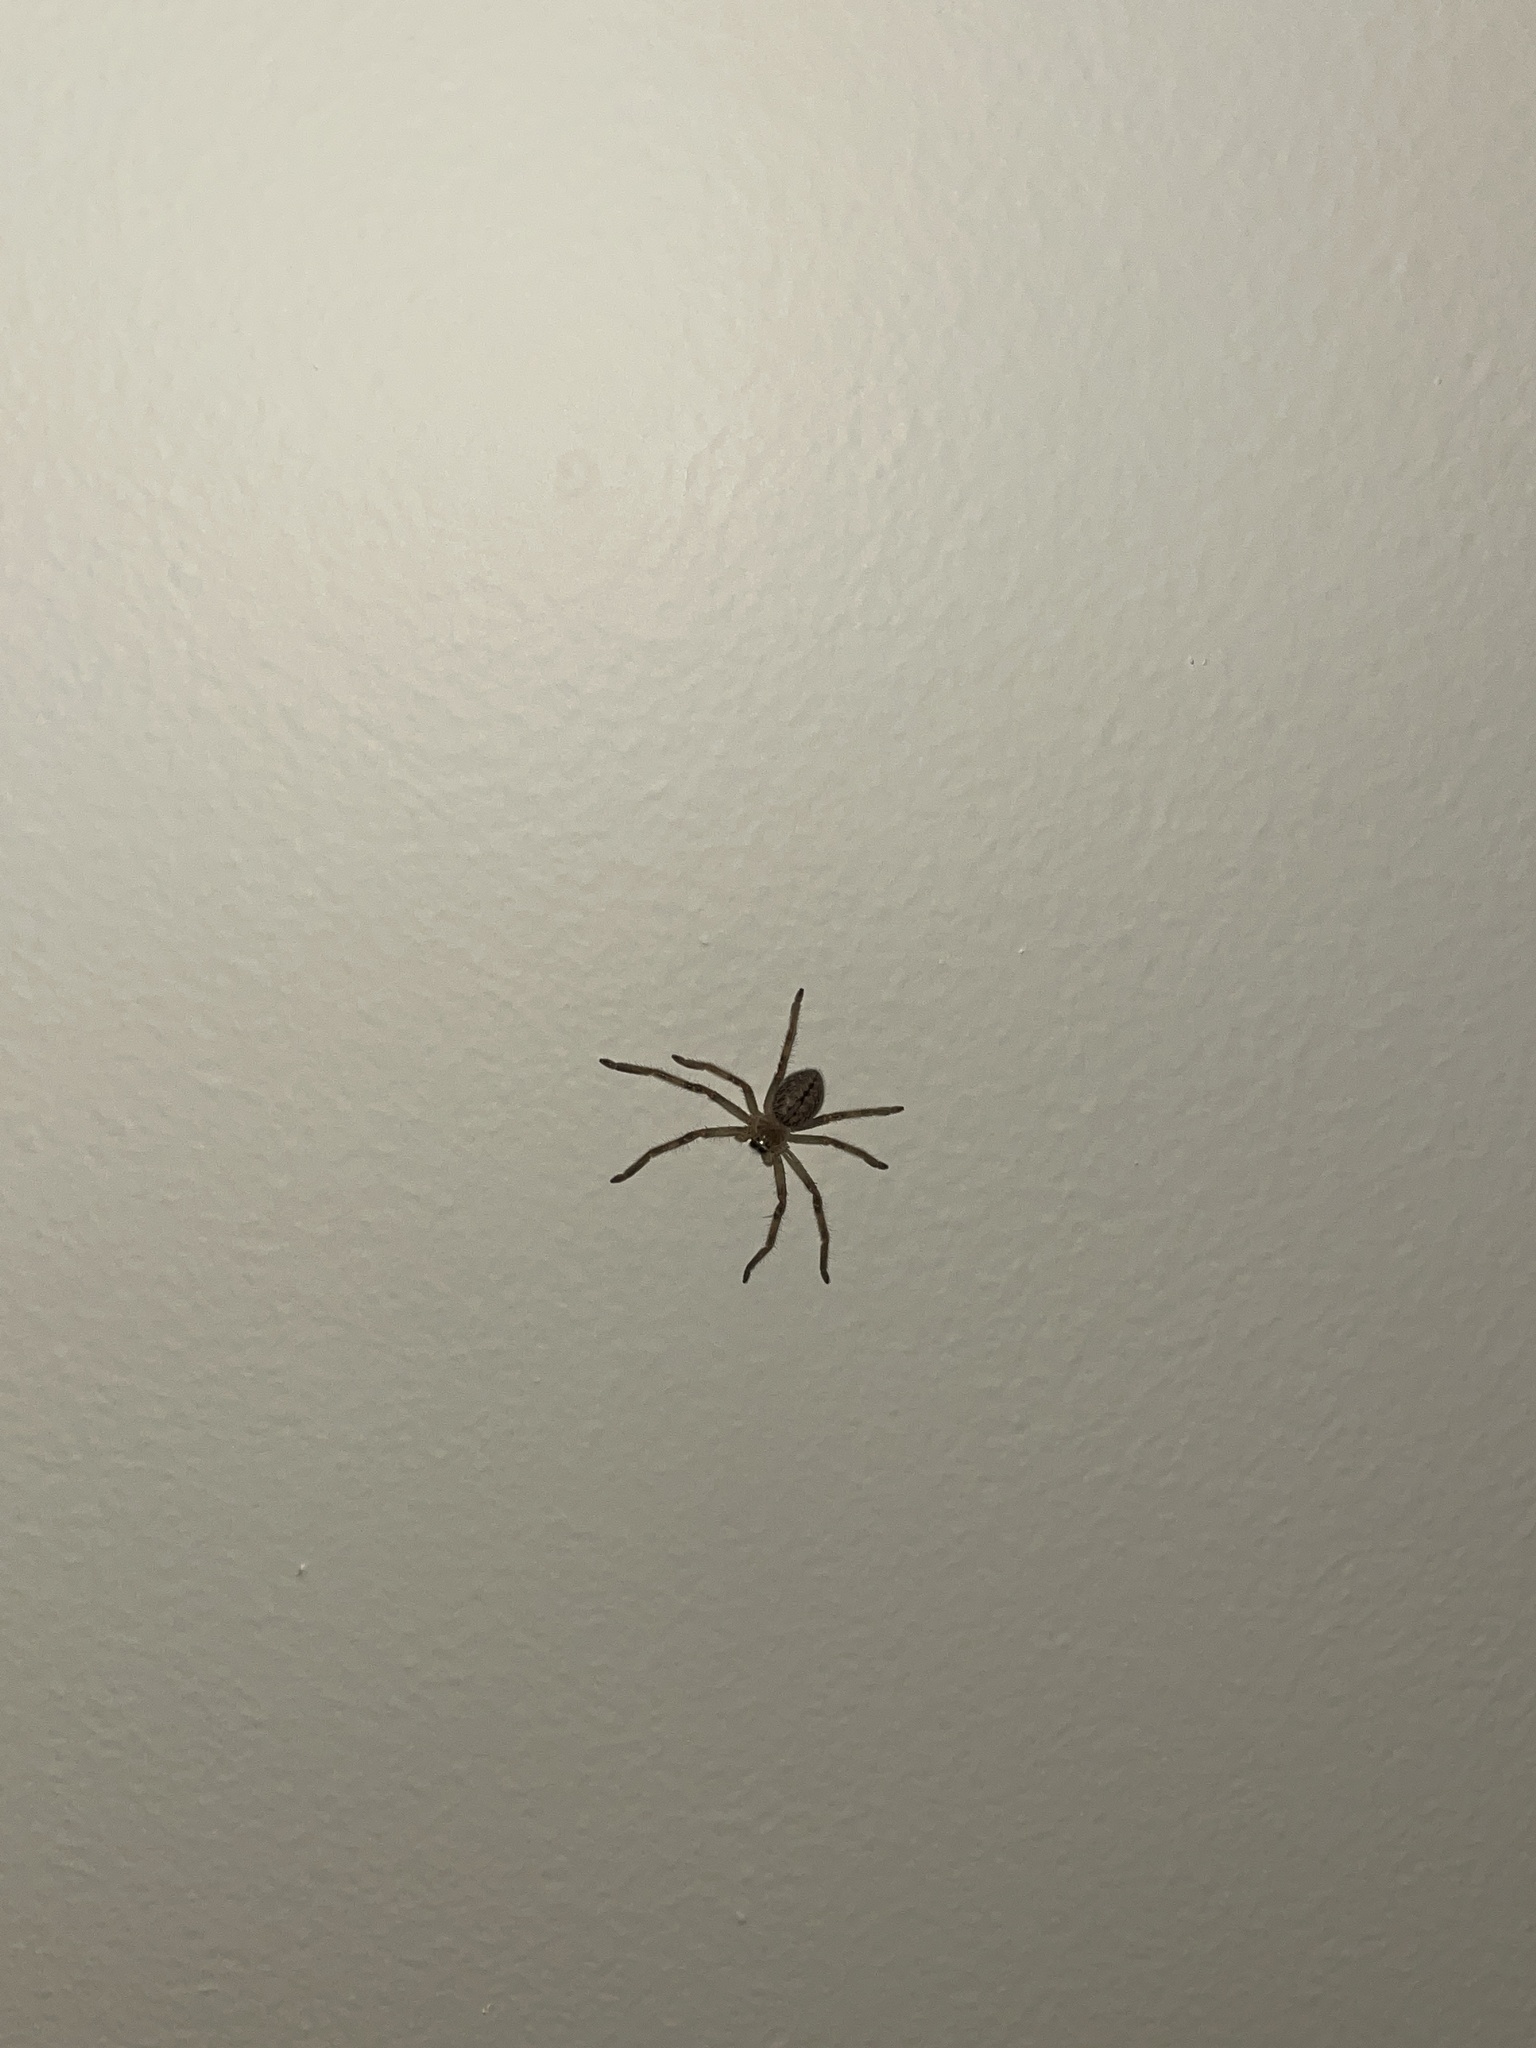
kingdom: Animalia
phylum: Arthropoda
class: Arachnida
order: Araneae
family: Sparassidae
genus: Olios
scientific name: Olios giganteus
